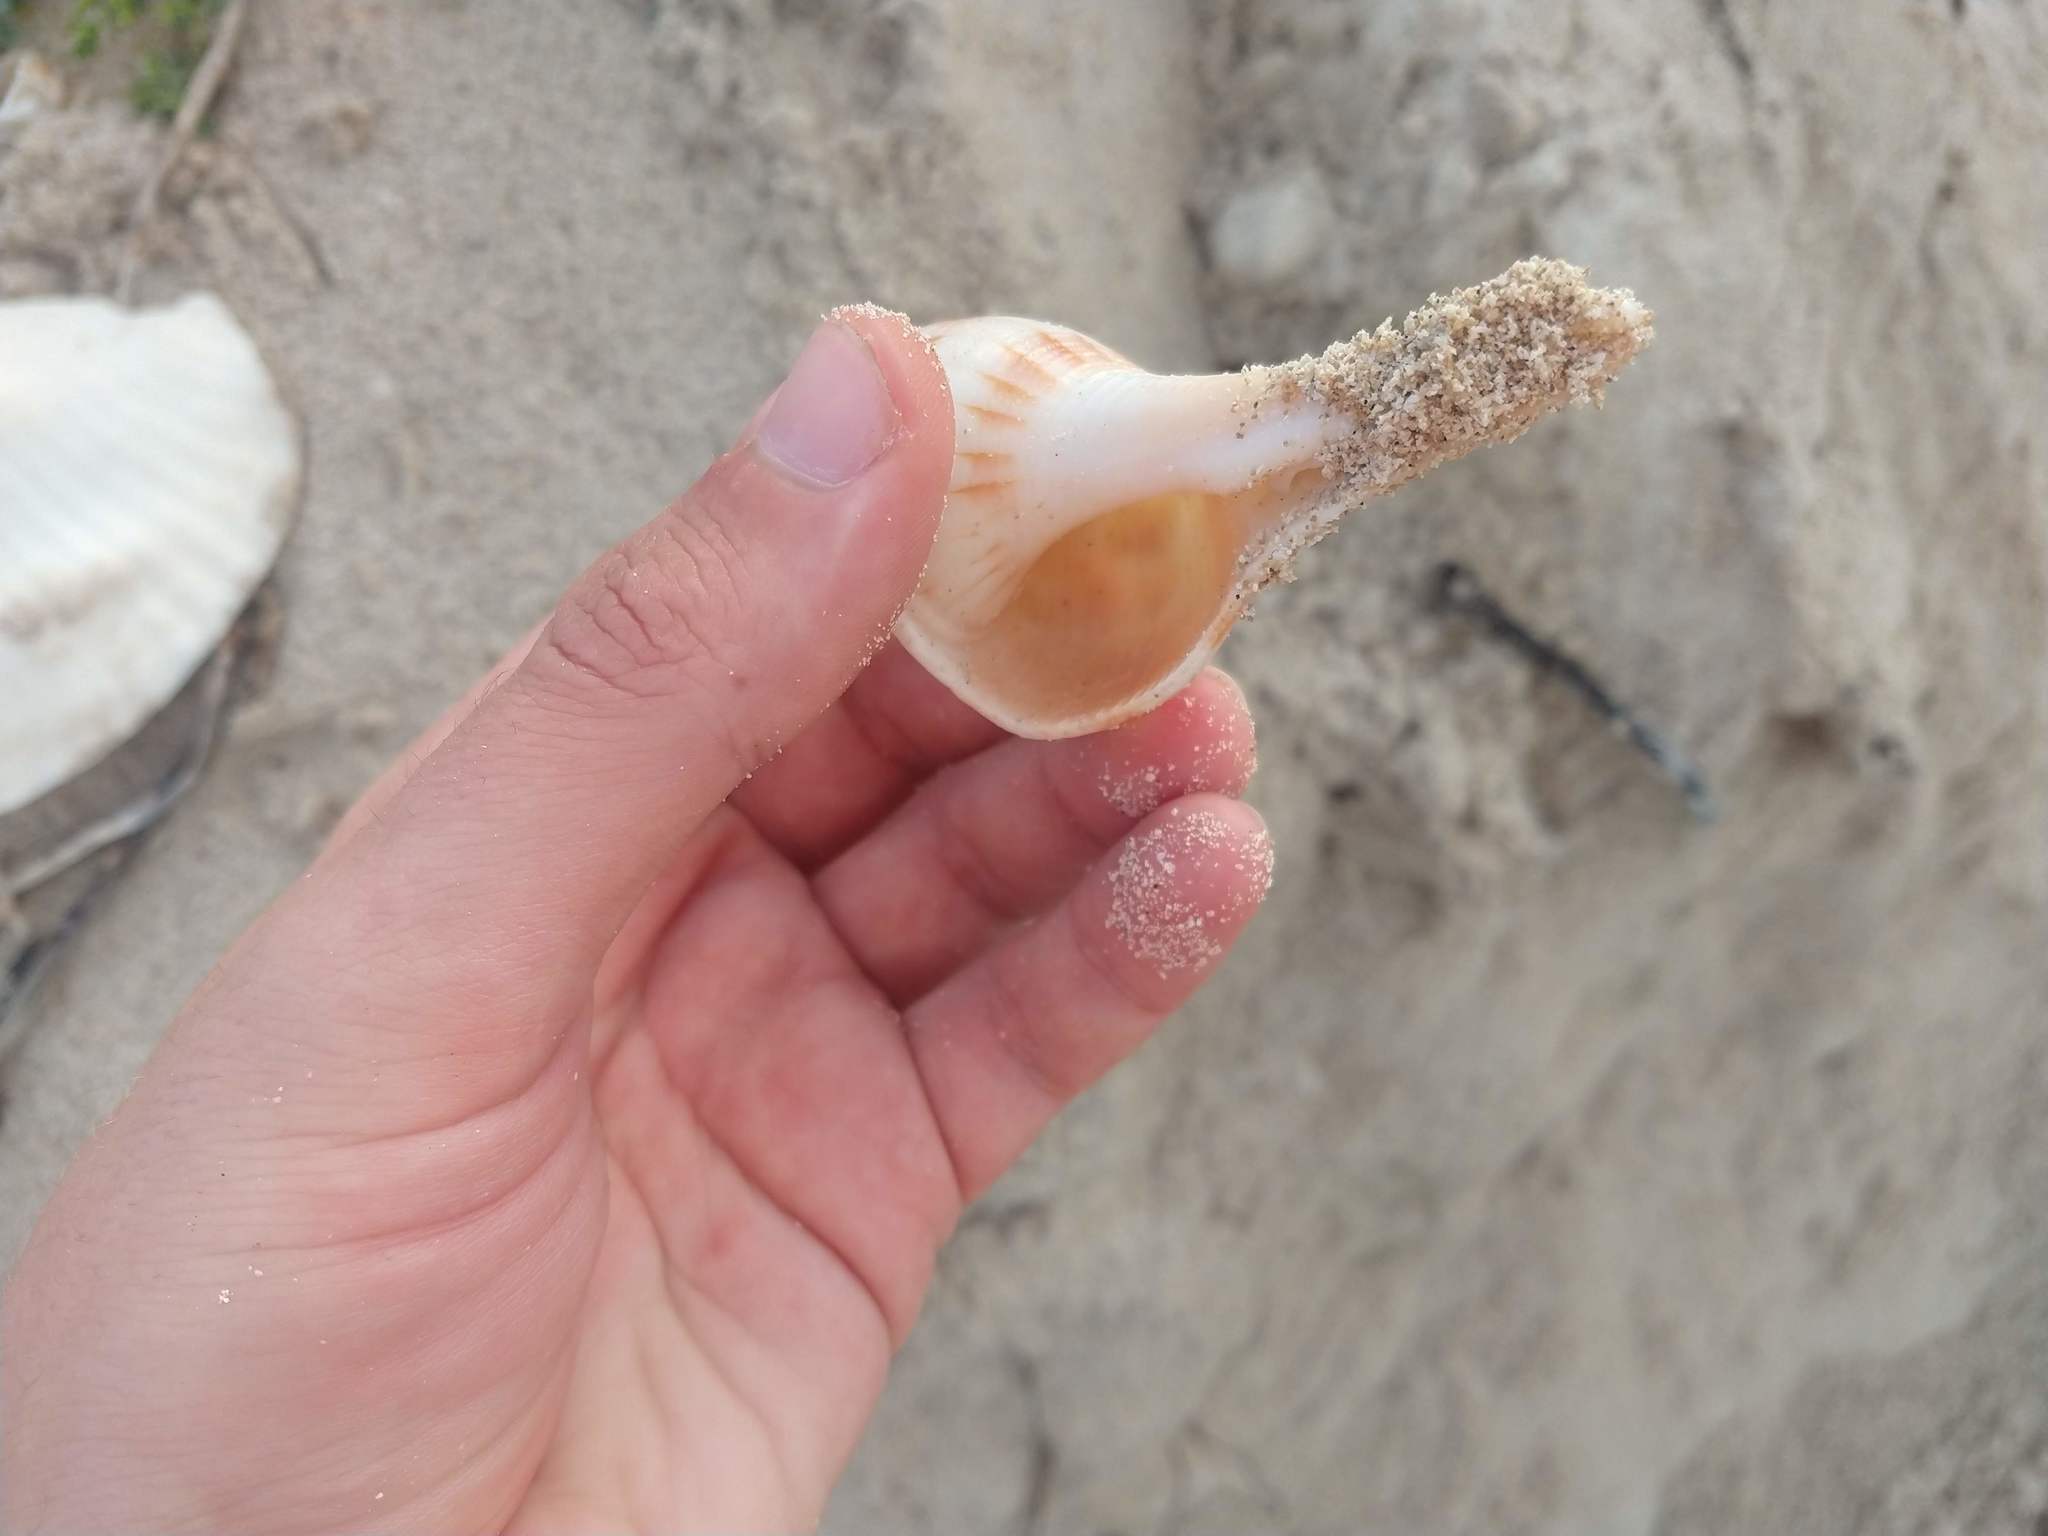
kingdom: Animalia
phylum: Mollusca
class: Gastropoda
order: Neogastropoda
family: Busyconidae
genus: Sinistrofulgur
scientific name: Sinistrofulgur sinistrum
